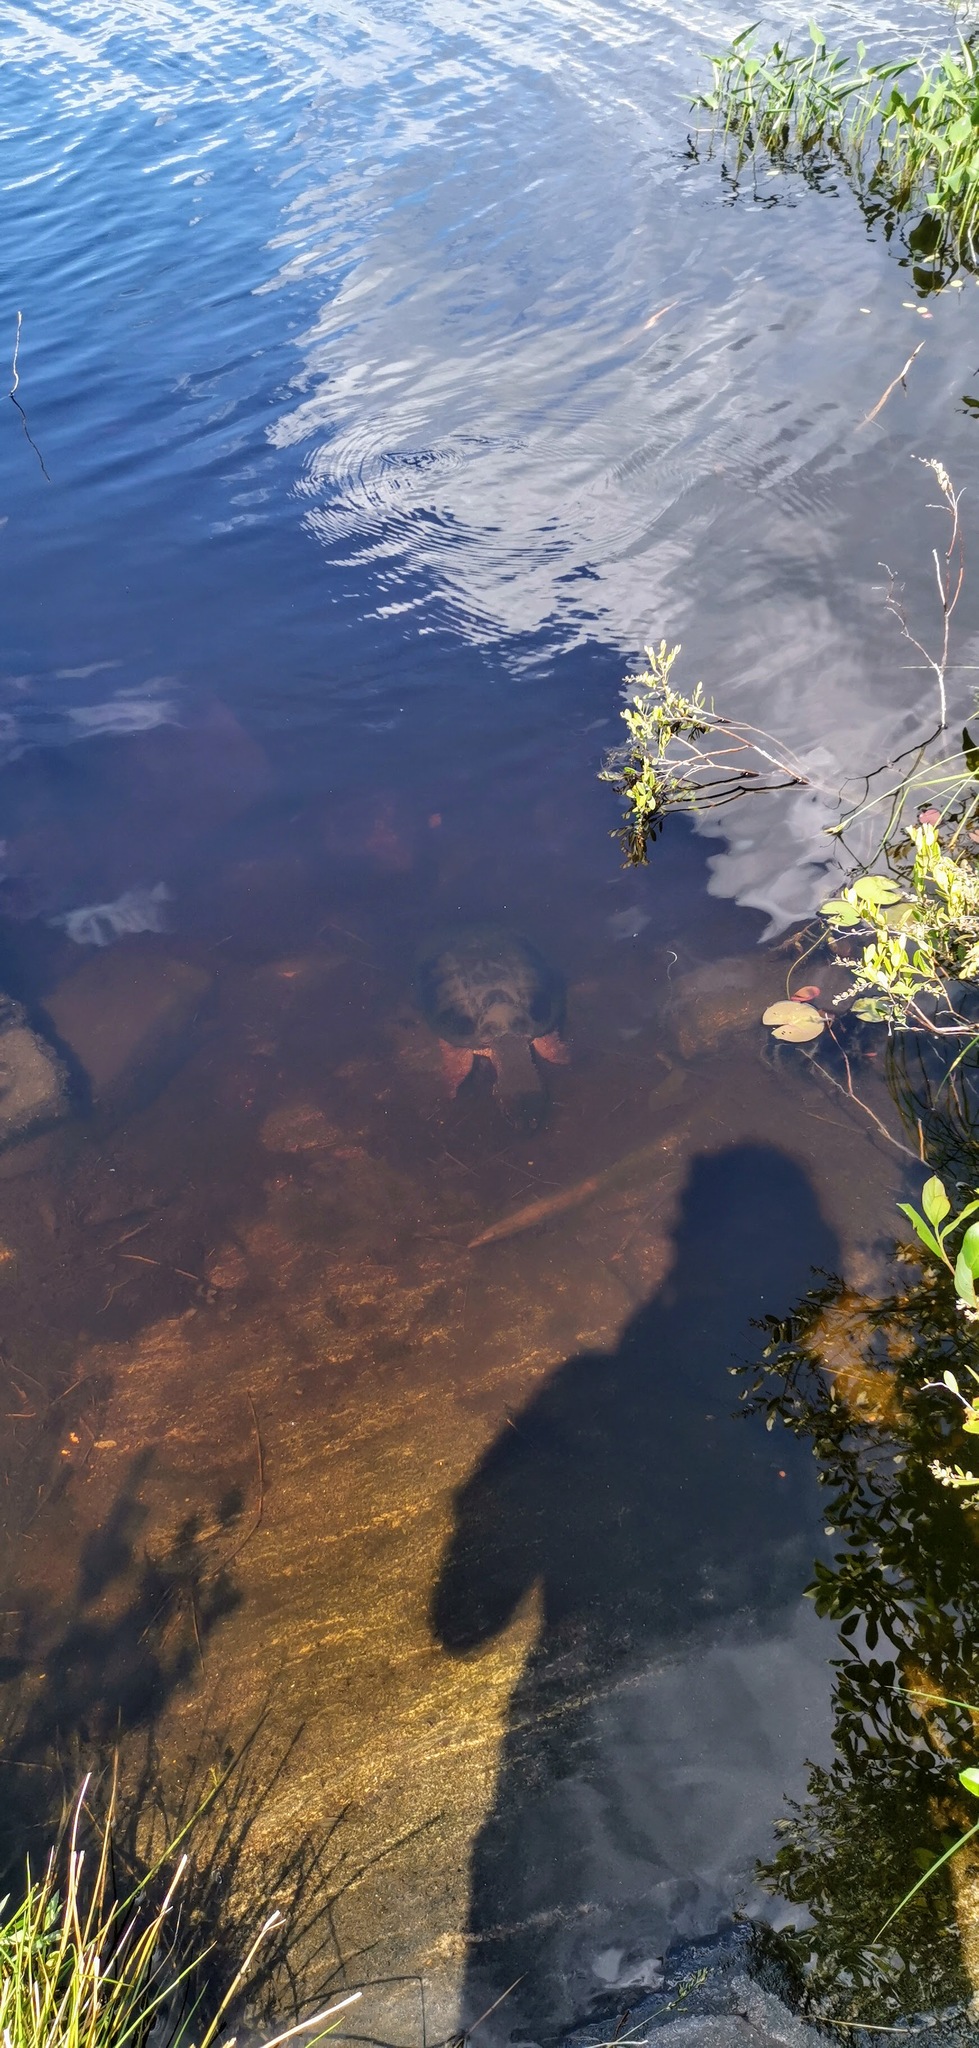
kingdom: Animalia
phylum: Chordata
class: Testudines
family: Chelydridae
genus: Chelydra
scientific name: Chelydra serpentina
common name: Common snapping turtle
